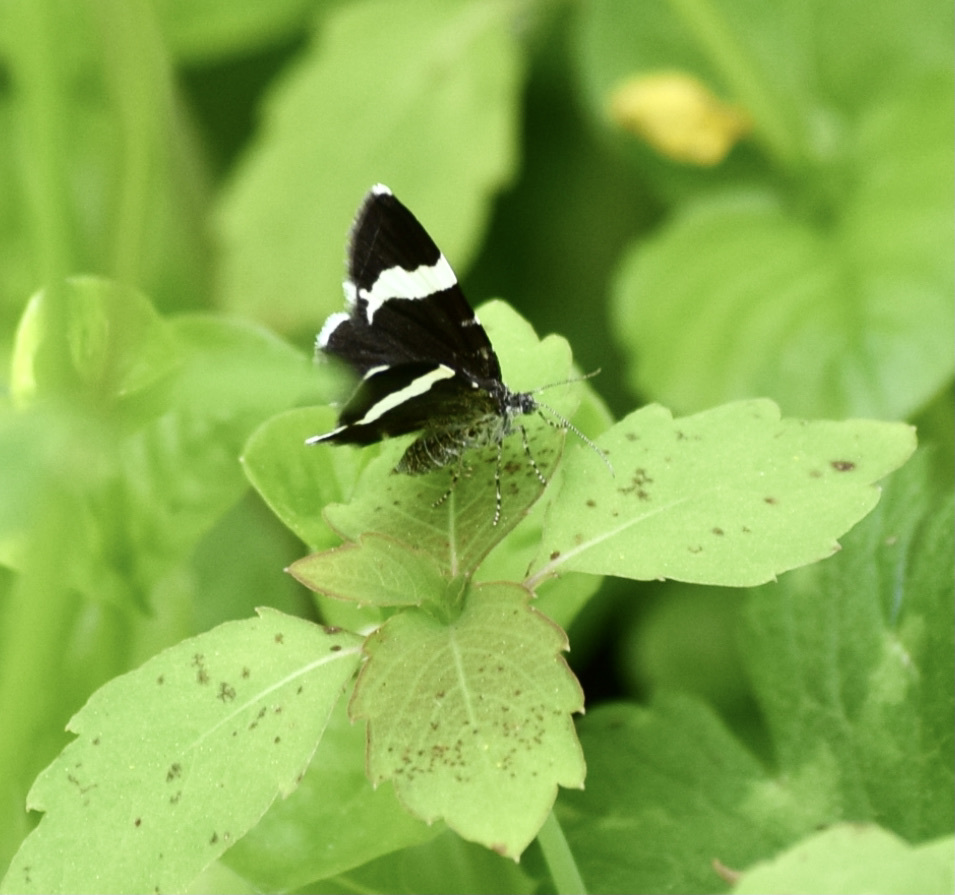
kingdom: Animalia
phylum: Arthropoda
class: Insecta
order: Lepidoptera
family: Geometridae
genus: Trichodezia
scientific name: Trichodezia albovittata
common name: White striped black
